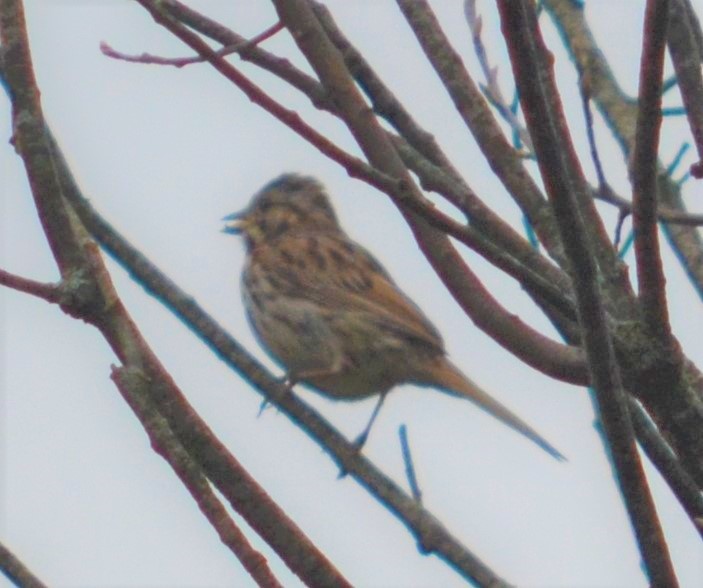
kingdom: Animalia
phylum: Chordata
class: Aves
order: Passeriformes
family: Passerellidae
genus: Melospiza
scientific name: Melospiza melodia
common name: Song sparrow
